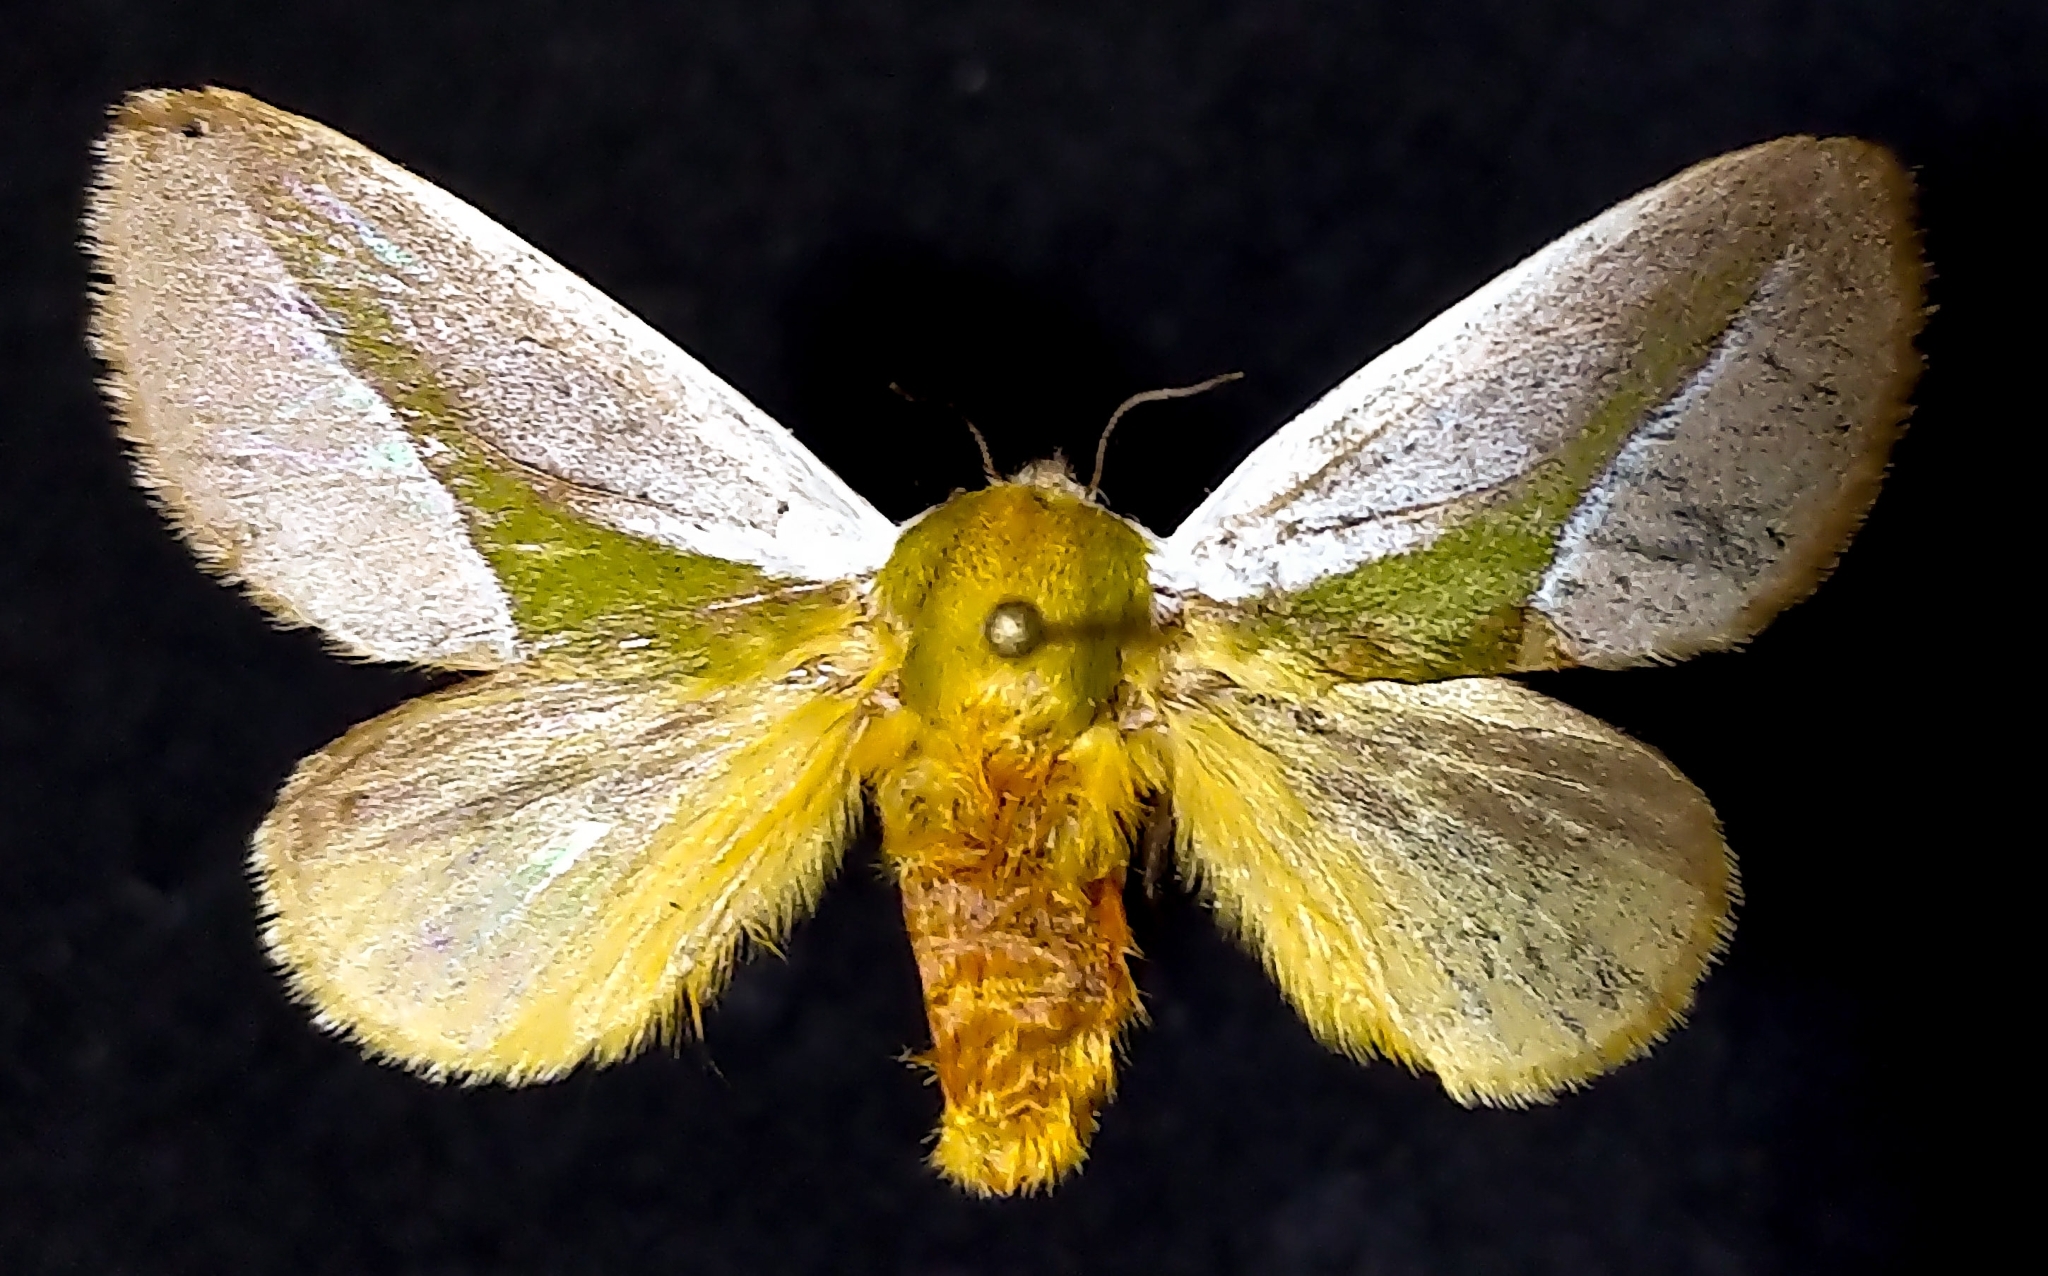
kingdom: Animalia
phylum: Arthropoda
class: Insecta
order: Lepidoptera
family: Limacodidae
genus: Latoia
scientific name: Latoia cineracea
